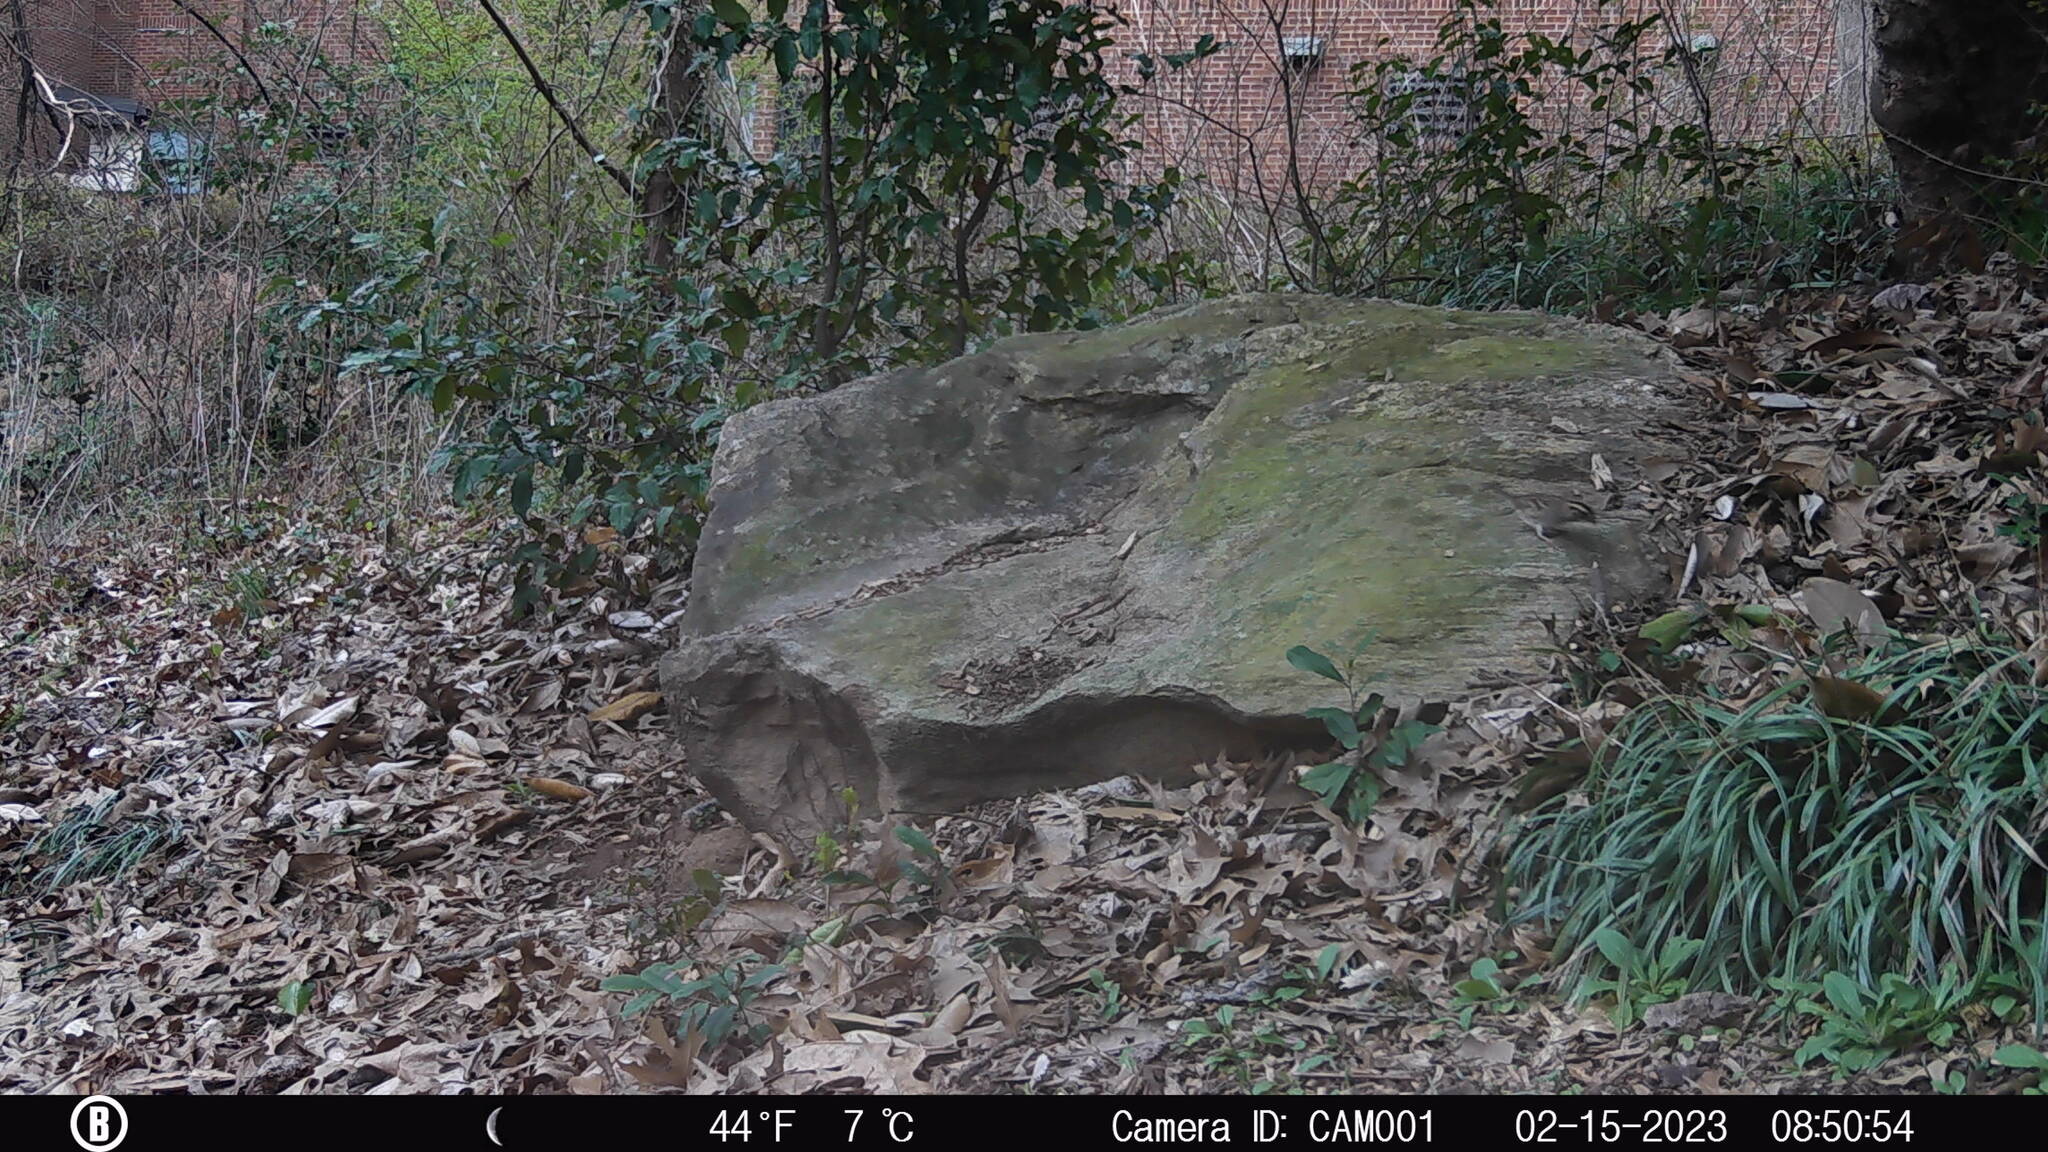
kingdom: Animalia
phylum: Chordata
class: Aves
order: Passeriformes
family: Passerellidae
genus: Zonotrichia
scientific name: Zonotrichia albicollis
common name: White-throated sparrow
